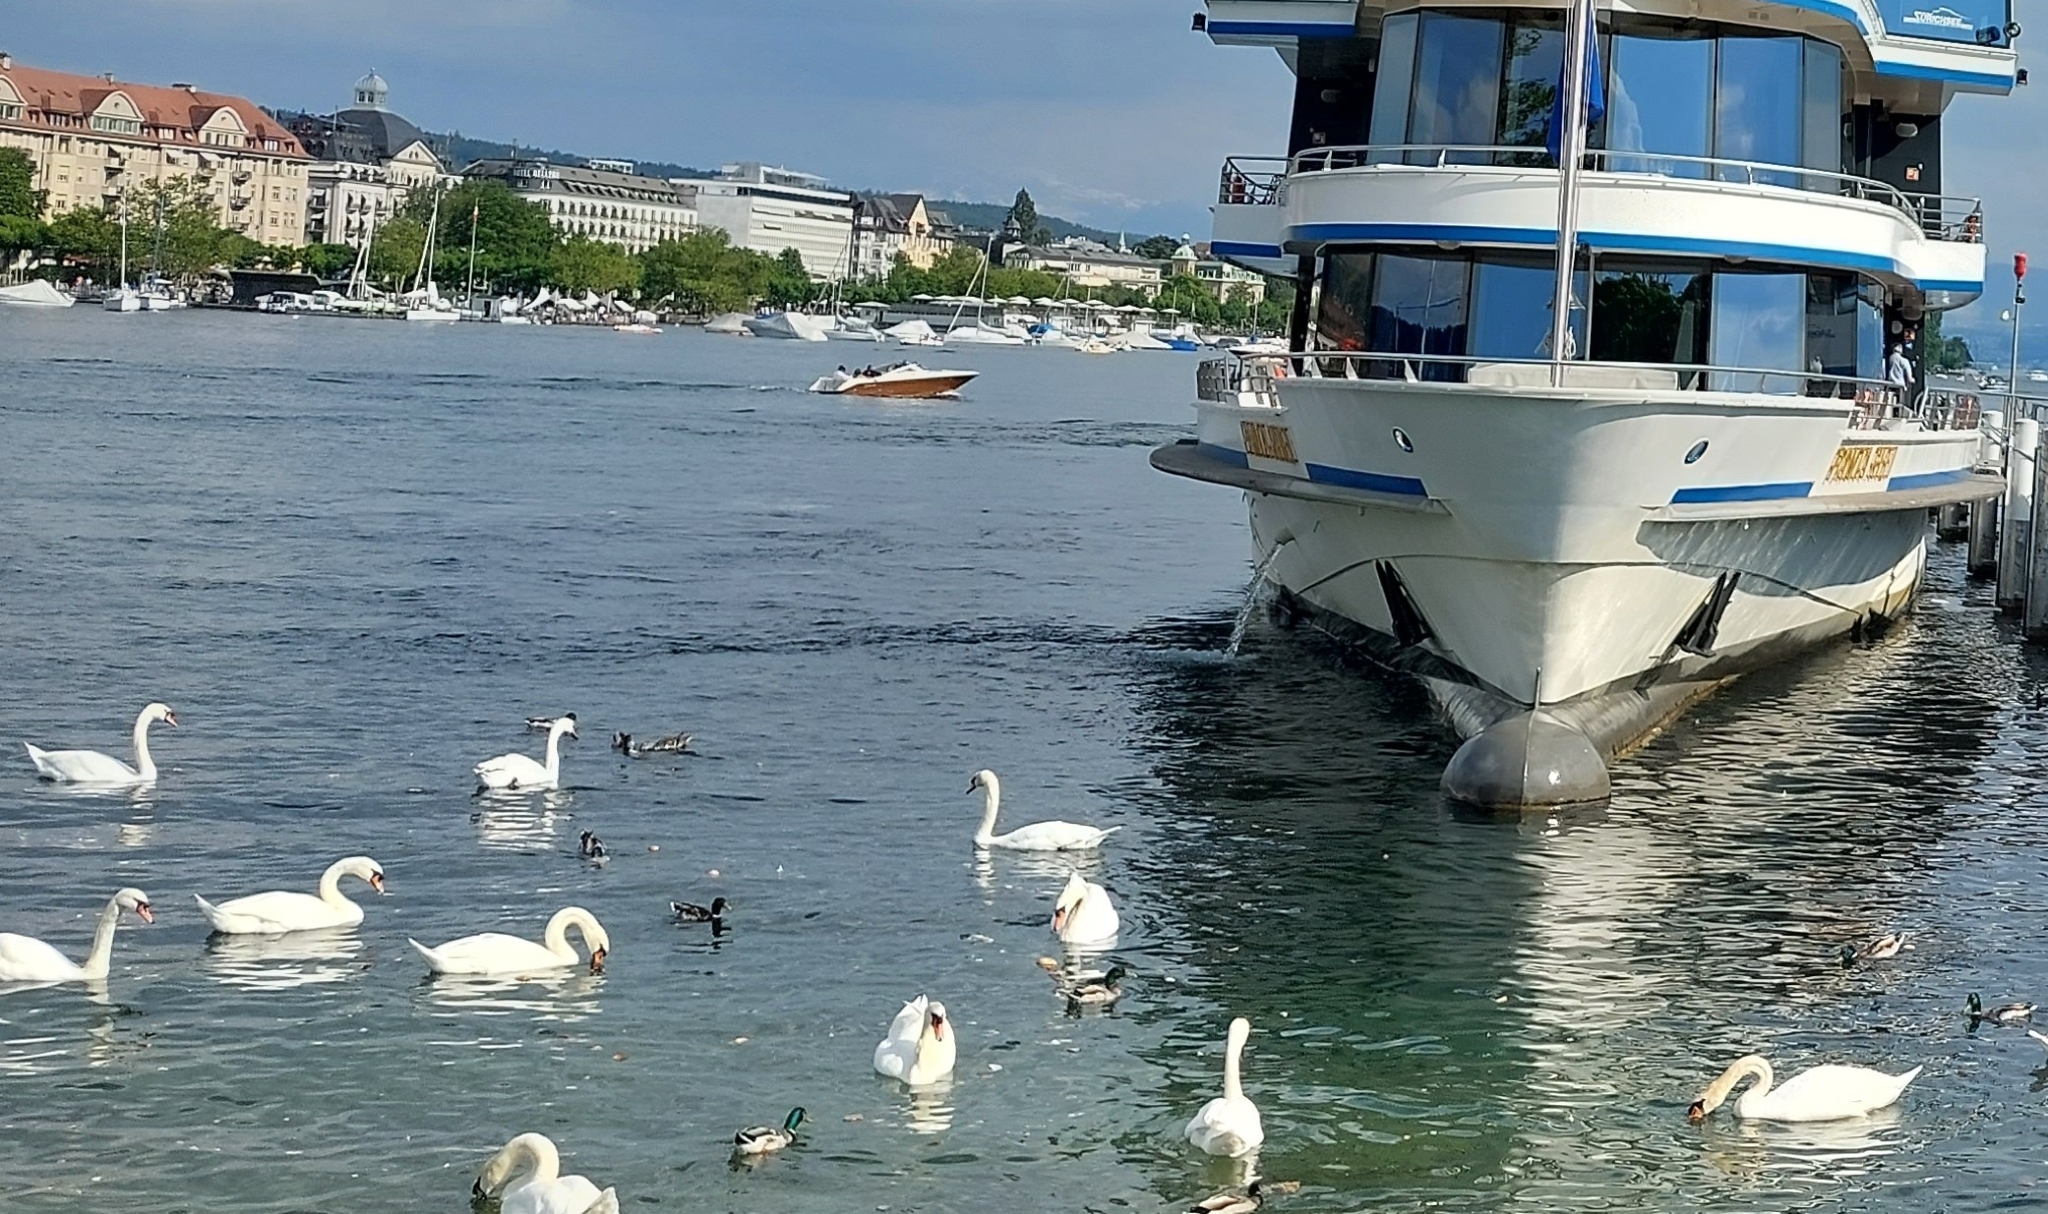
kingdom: Animalia
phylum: Chordata
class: Aves
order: Anseriformes
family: Anatidae
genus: Cygnus
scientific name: Cygnus olor
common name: Mute swan
